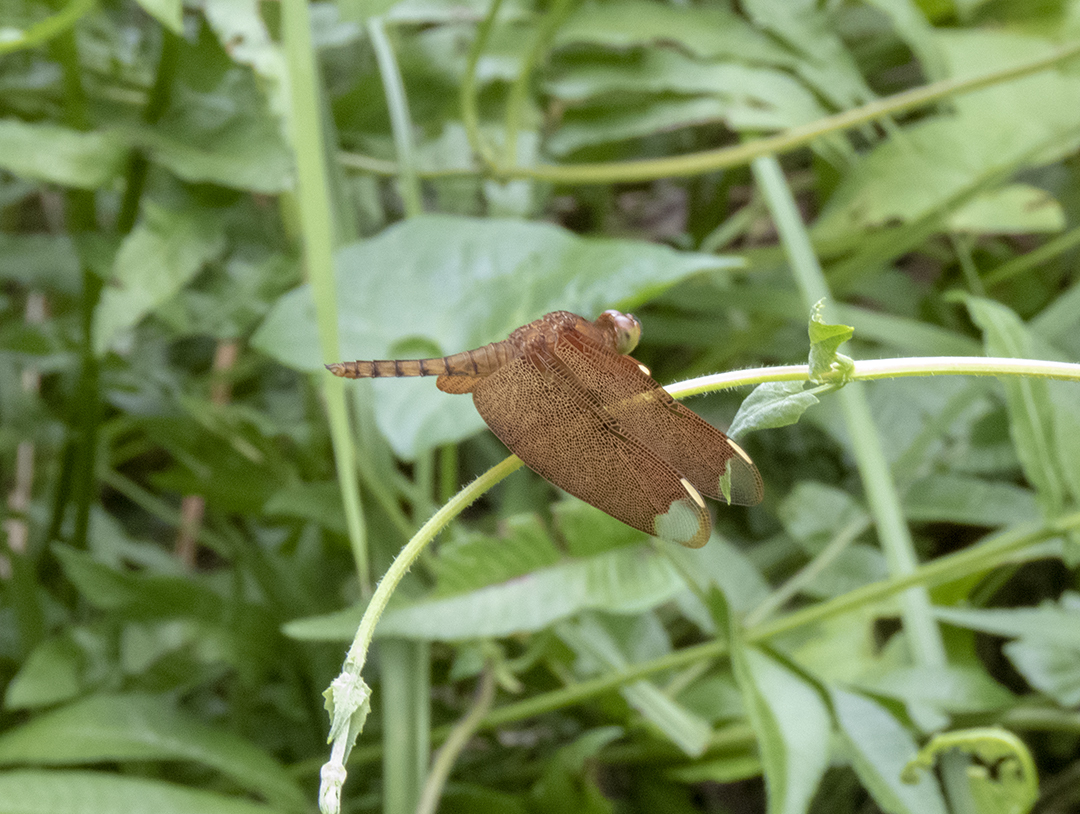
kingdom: Animalia
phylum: Arthropoda
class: Insecta
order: Odonata
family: Libellulidae
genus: Neurothemis
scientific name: Neurothemis fulvia
